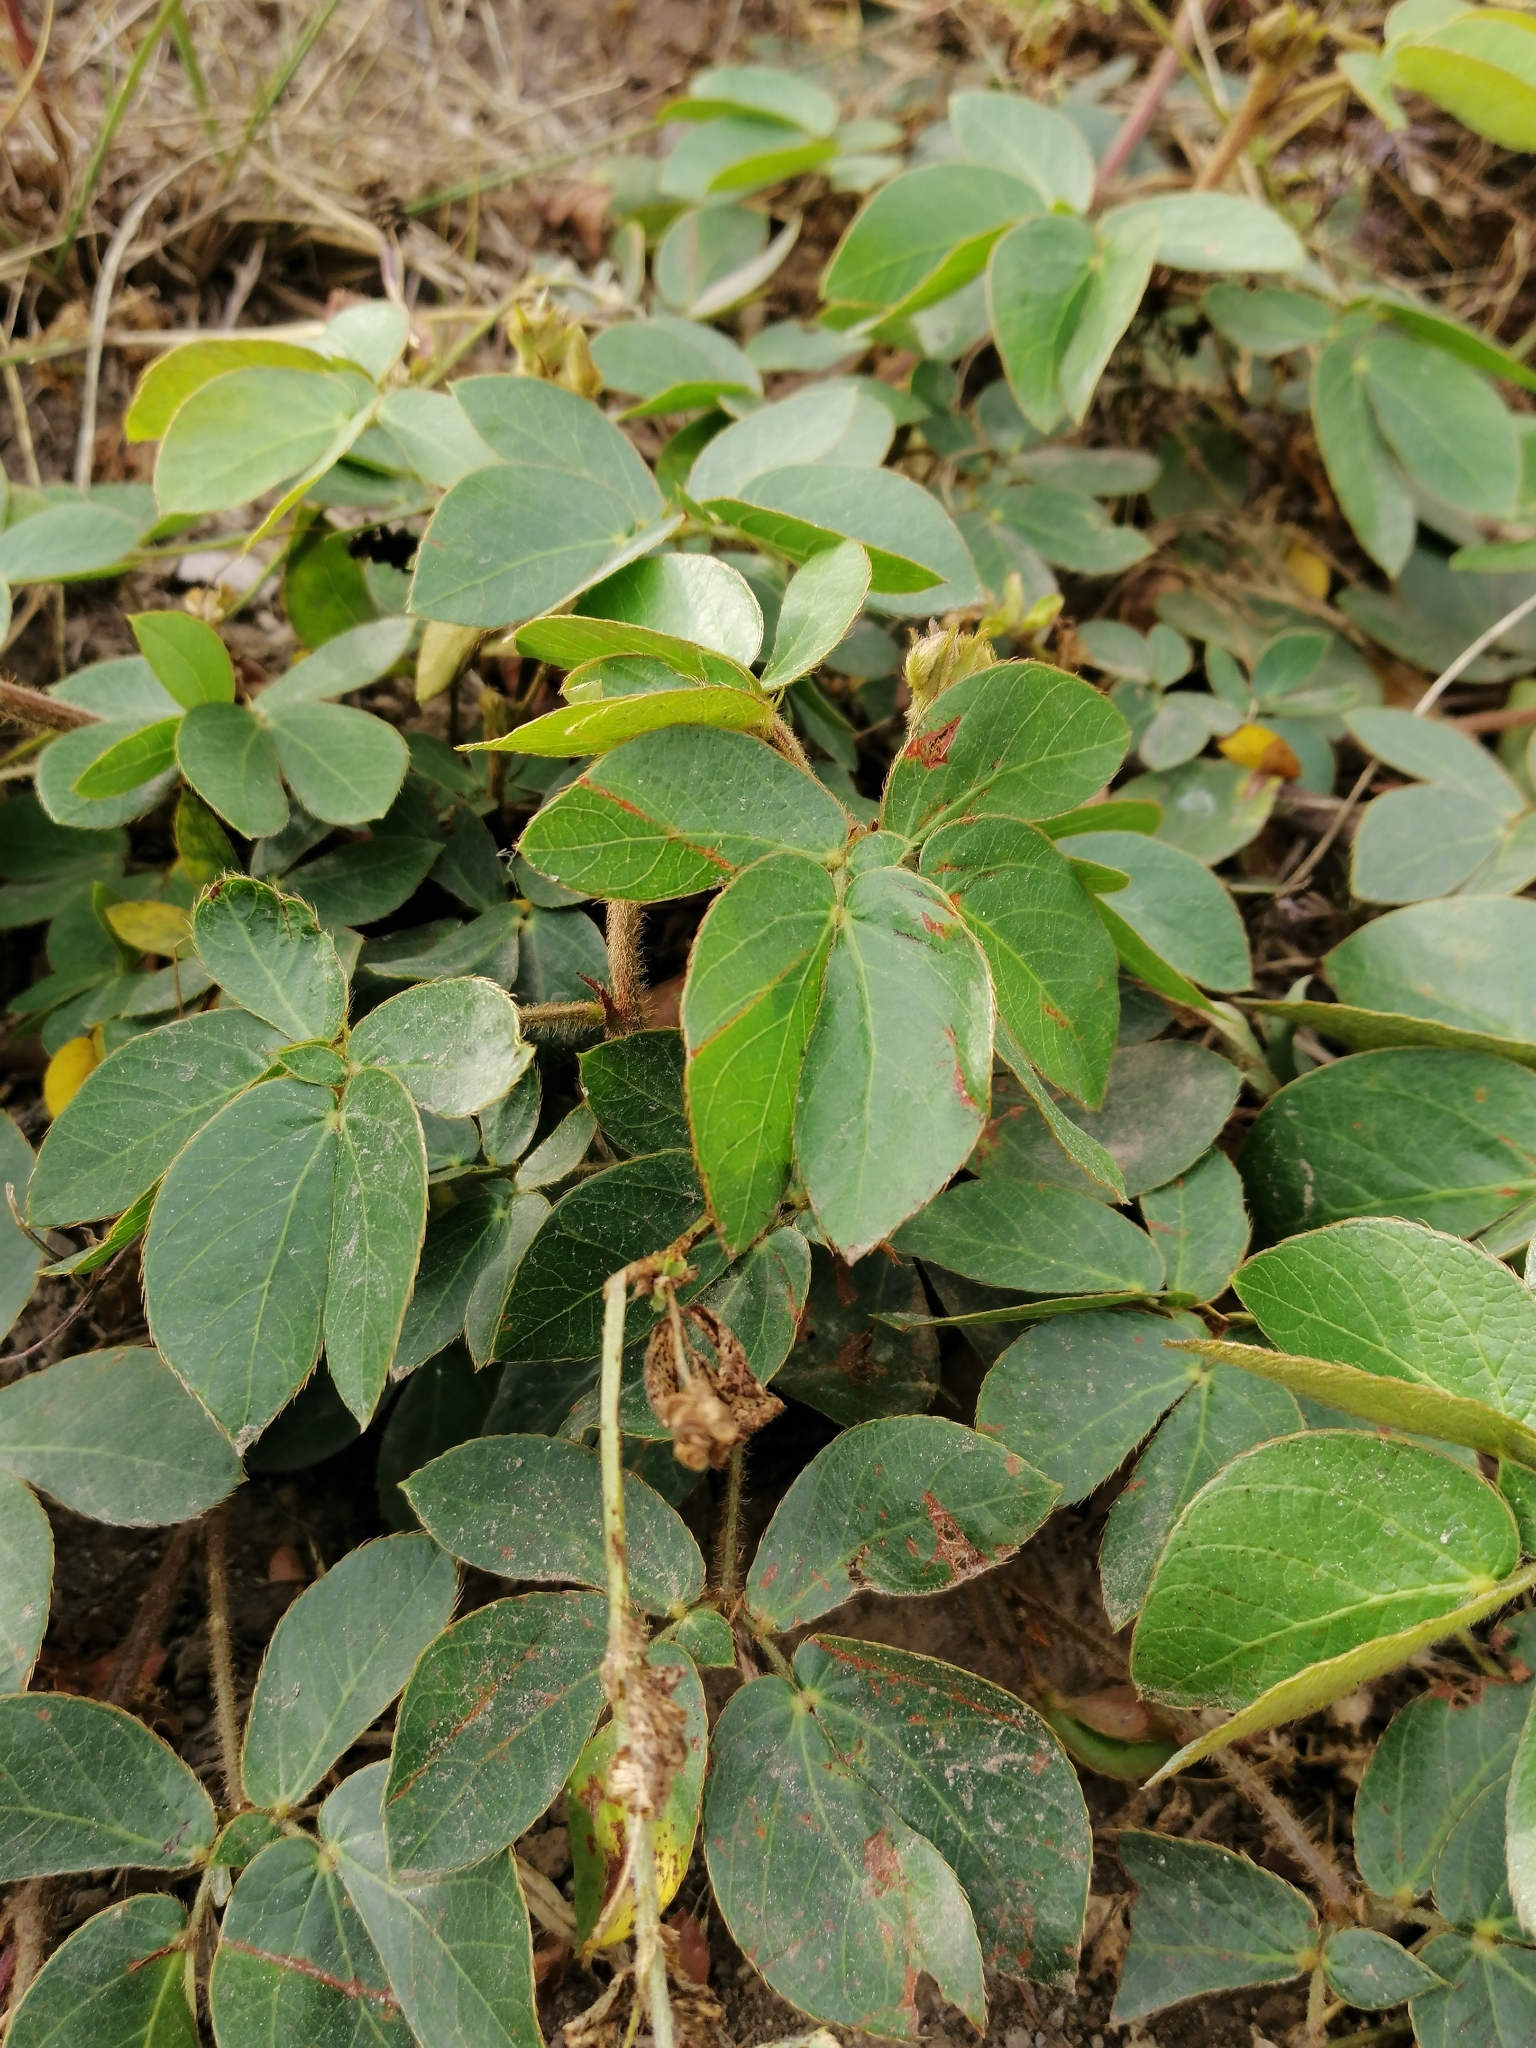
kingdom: Plantae
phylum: Tracheophyta
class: Magnoliopsida
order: Fabales
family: Fabaceae
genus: Mimosa
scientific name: Mimosa albida
